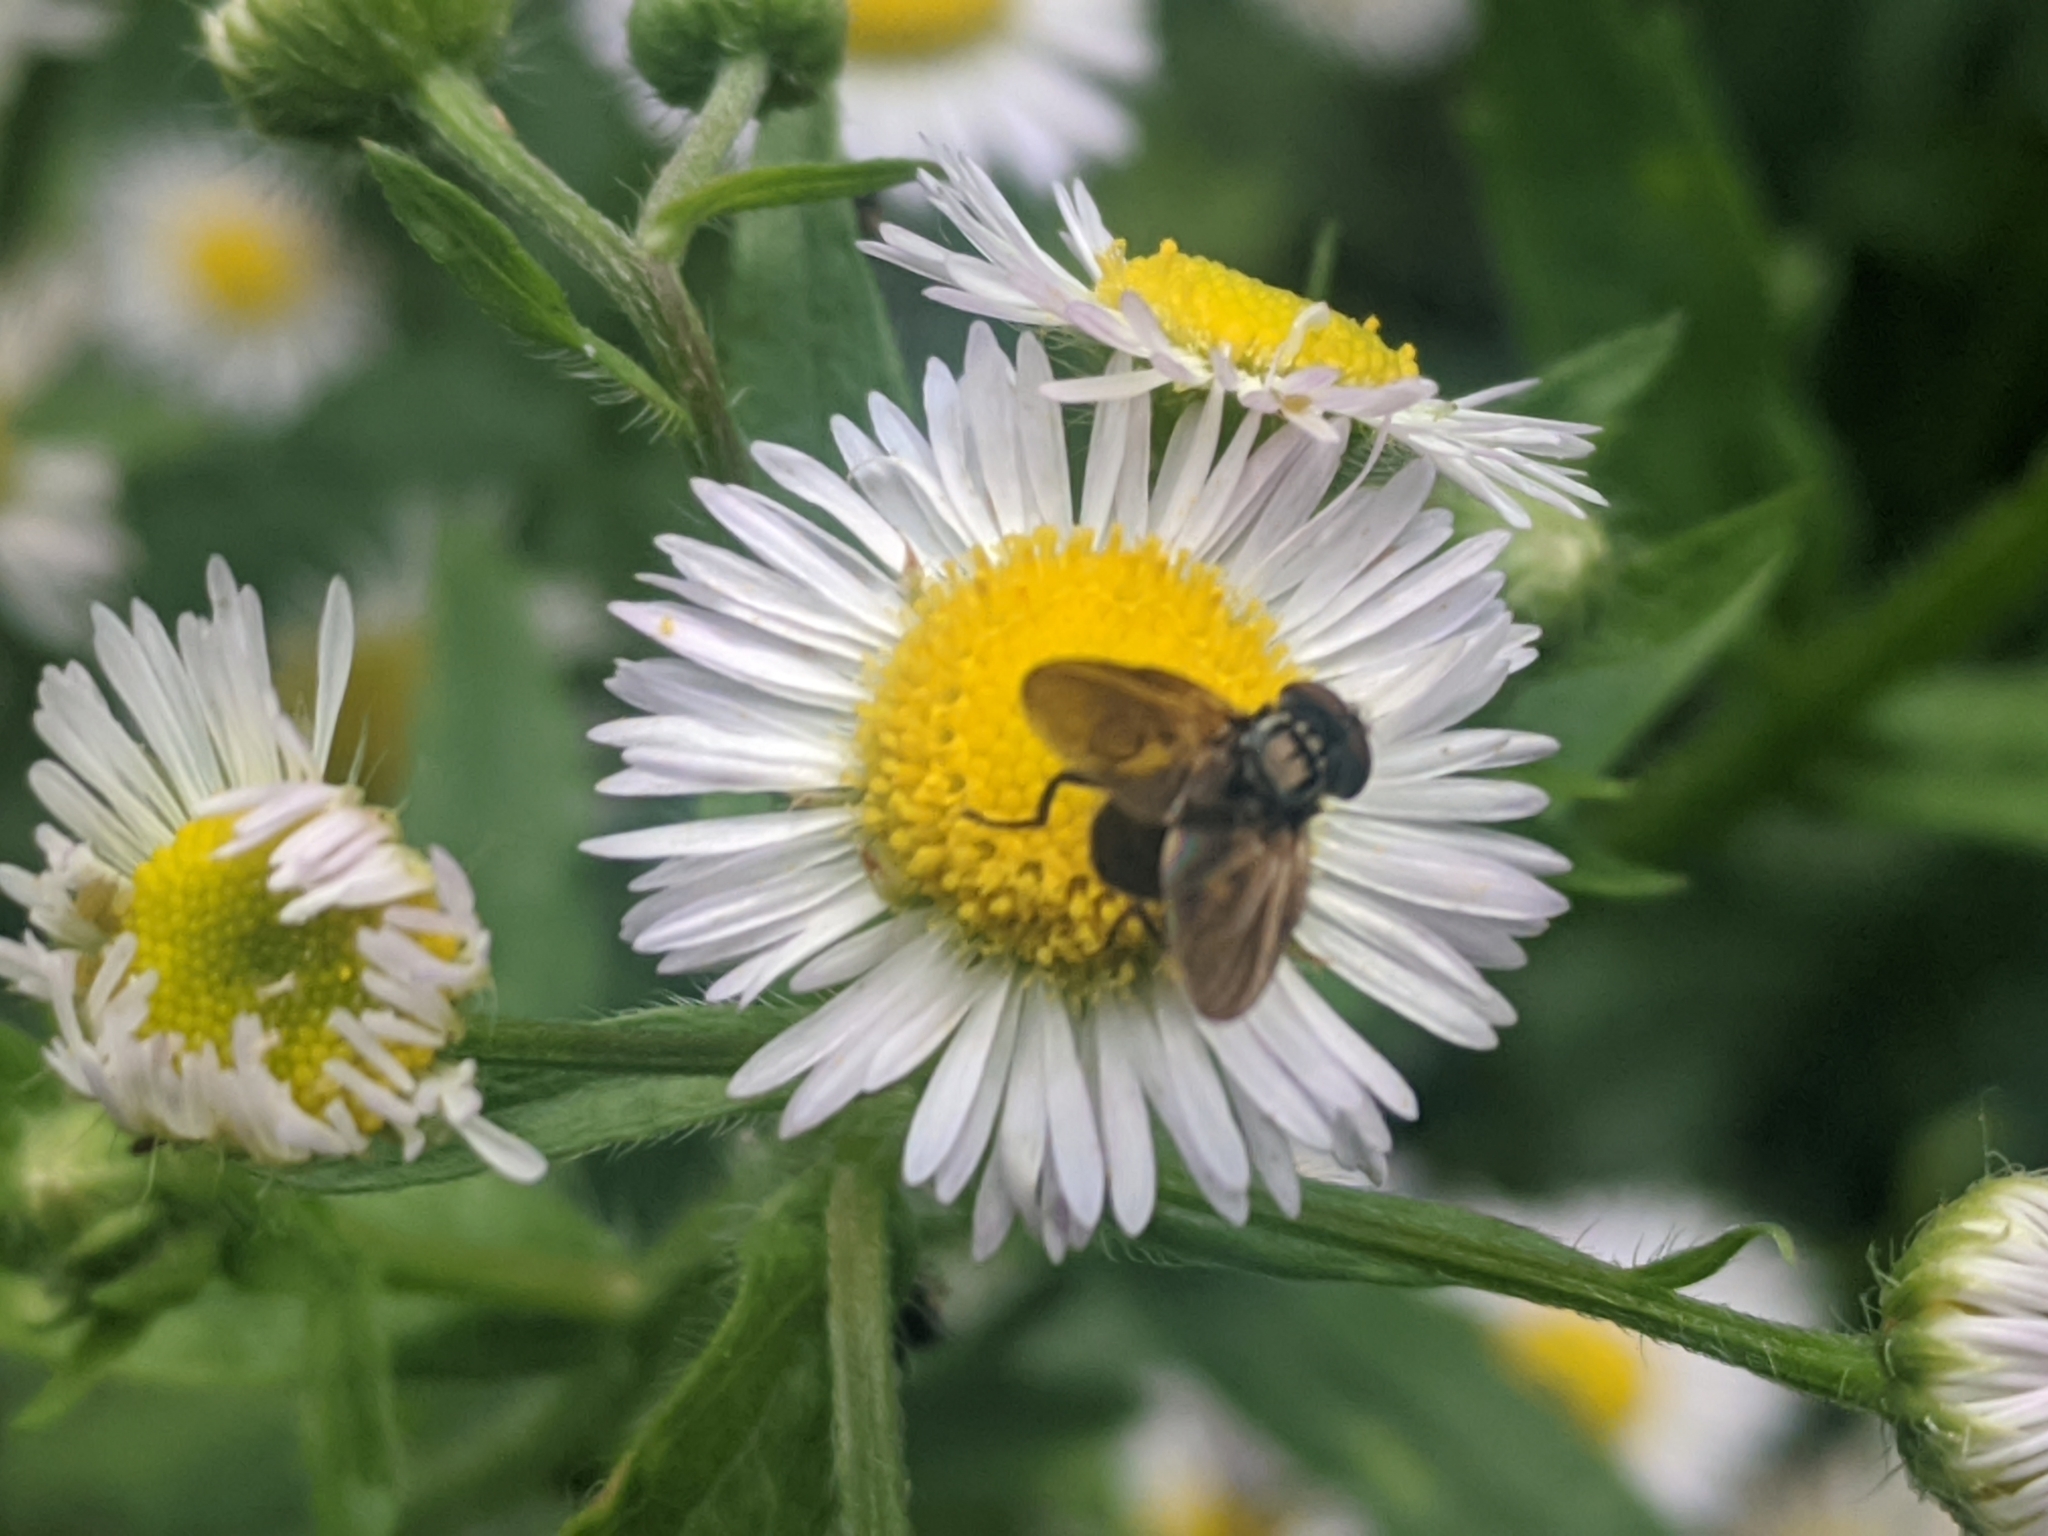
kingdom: Animalia
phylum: Arthropoda
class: Insecta
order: Diptera
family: Tachinidae
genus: Phasia
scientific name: Phasia obesa
